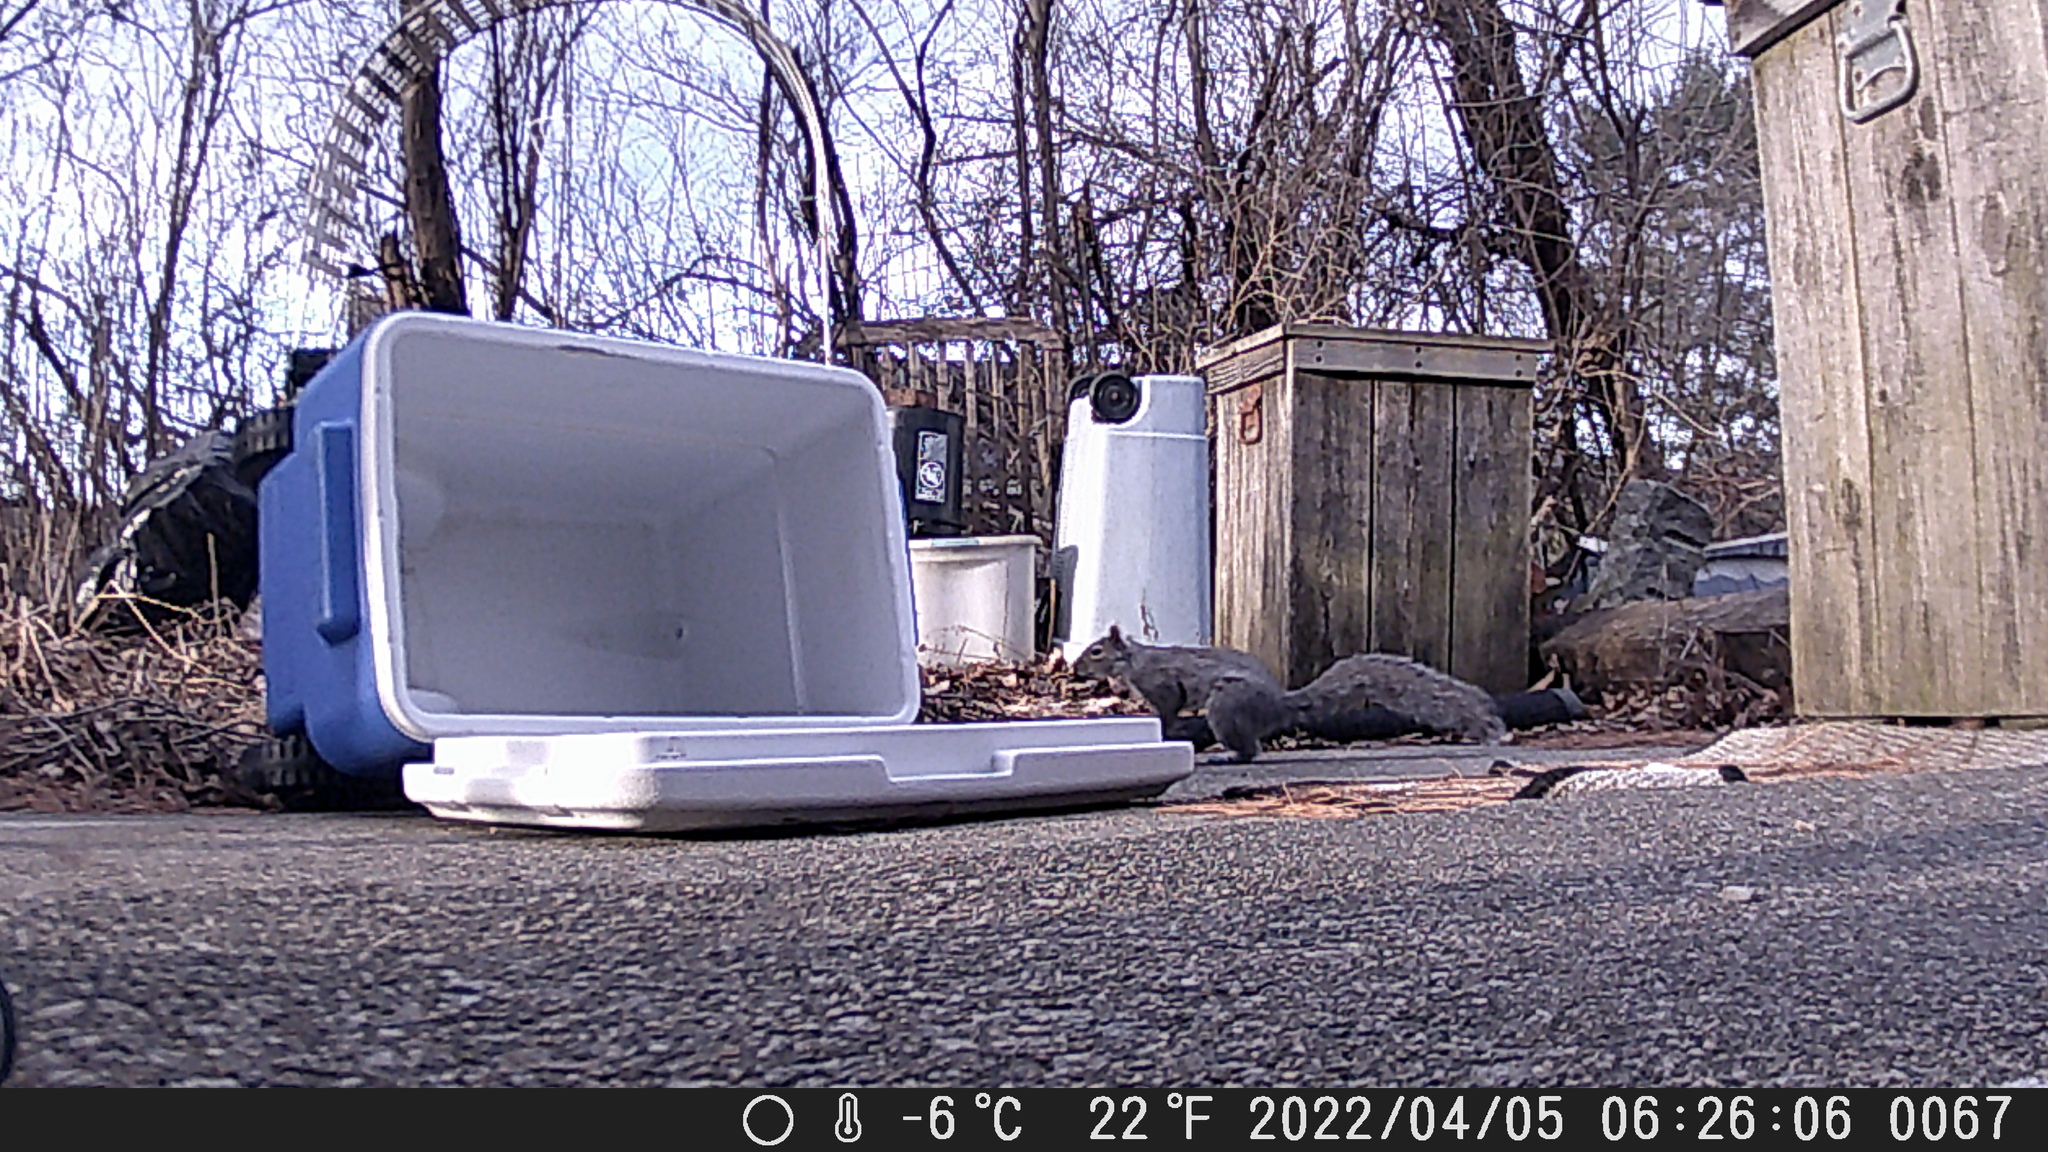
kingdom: Animalia
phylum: Chordata
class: Mammalia
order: Rodentia
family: Sciuridae
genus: Sciurus
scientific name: Sciurus carolinensis
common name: Eastern gray squirrel
